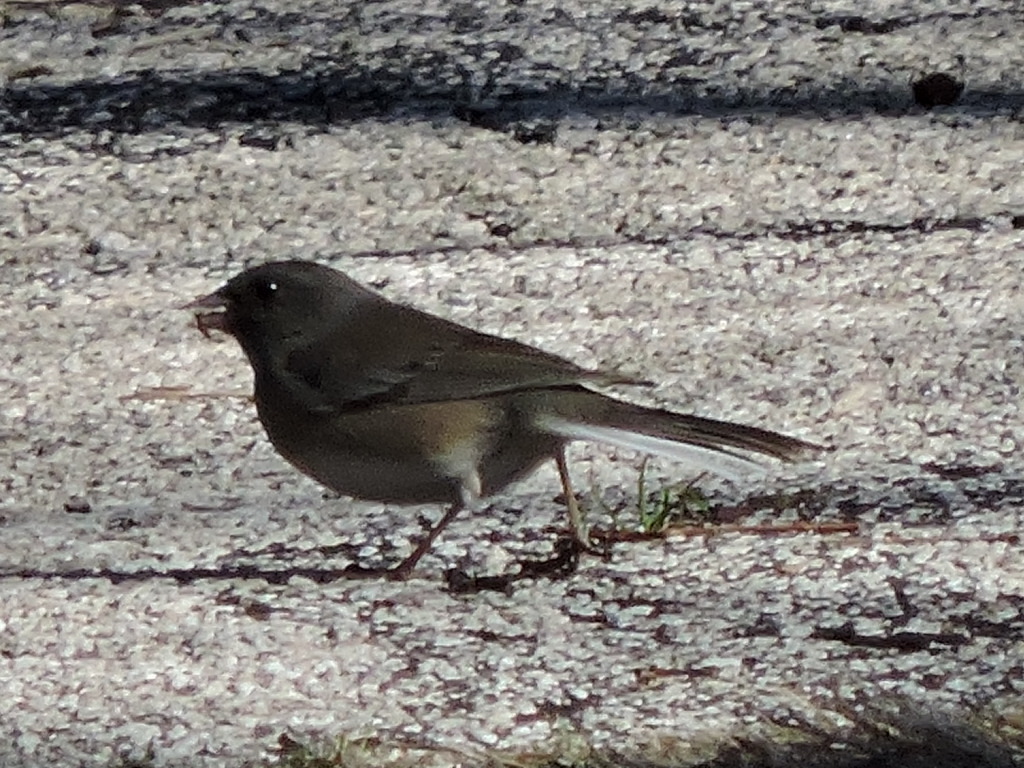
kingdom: Animalia
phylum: Chordata
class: Aves
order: Passeriformes
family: Passerellidae
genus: Junco
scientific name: Junco hyemalis
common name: Dark-eyed junco
